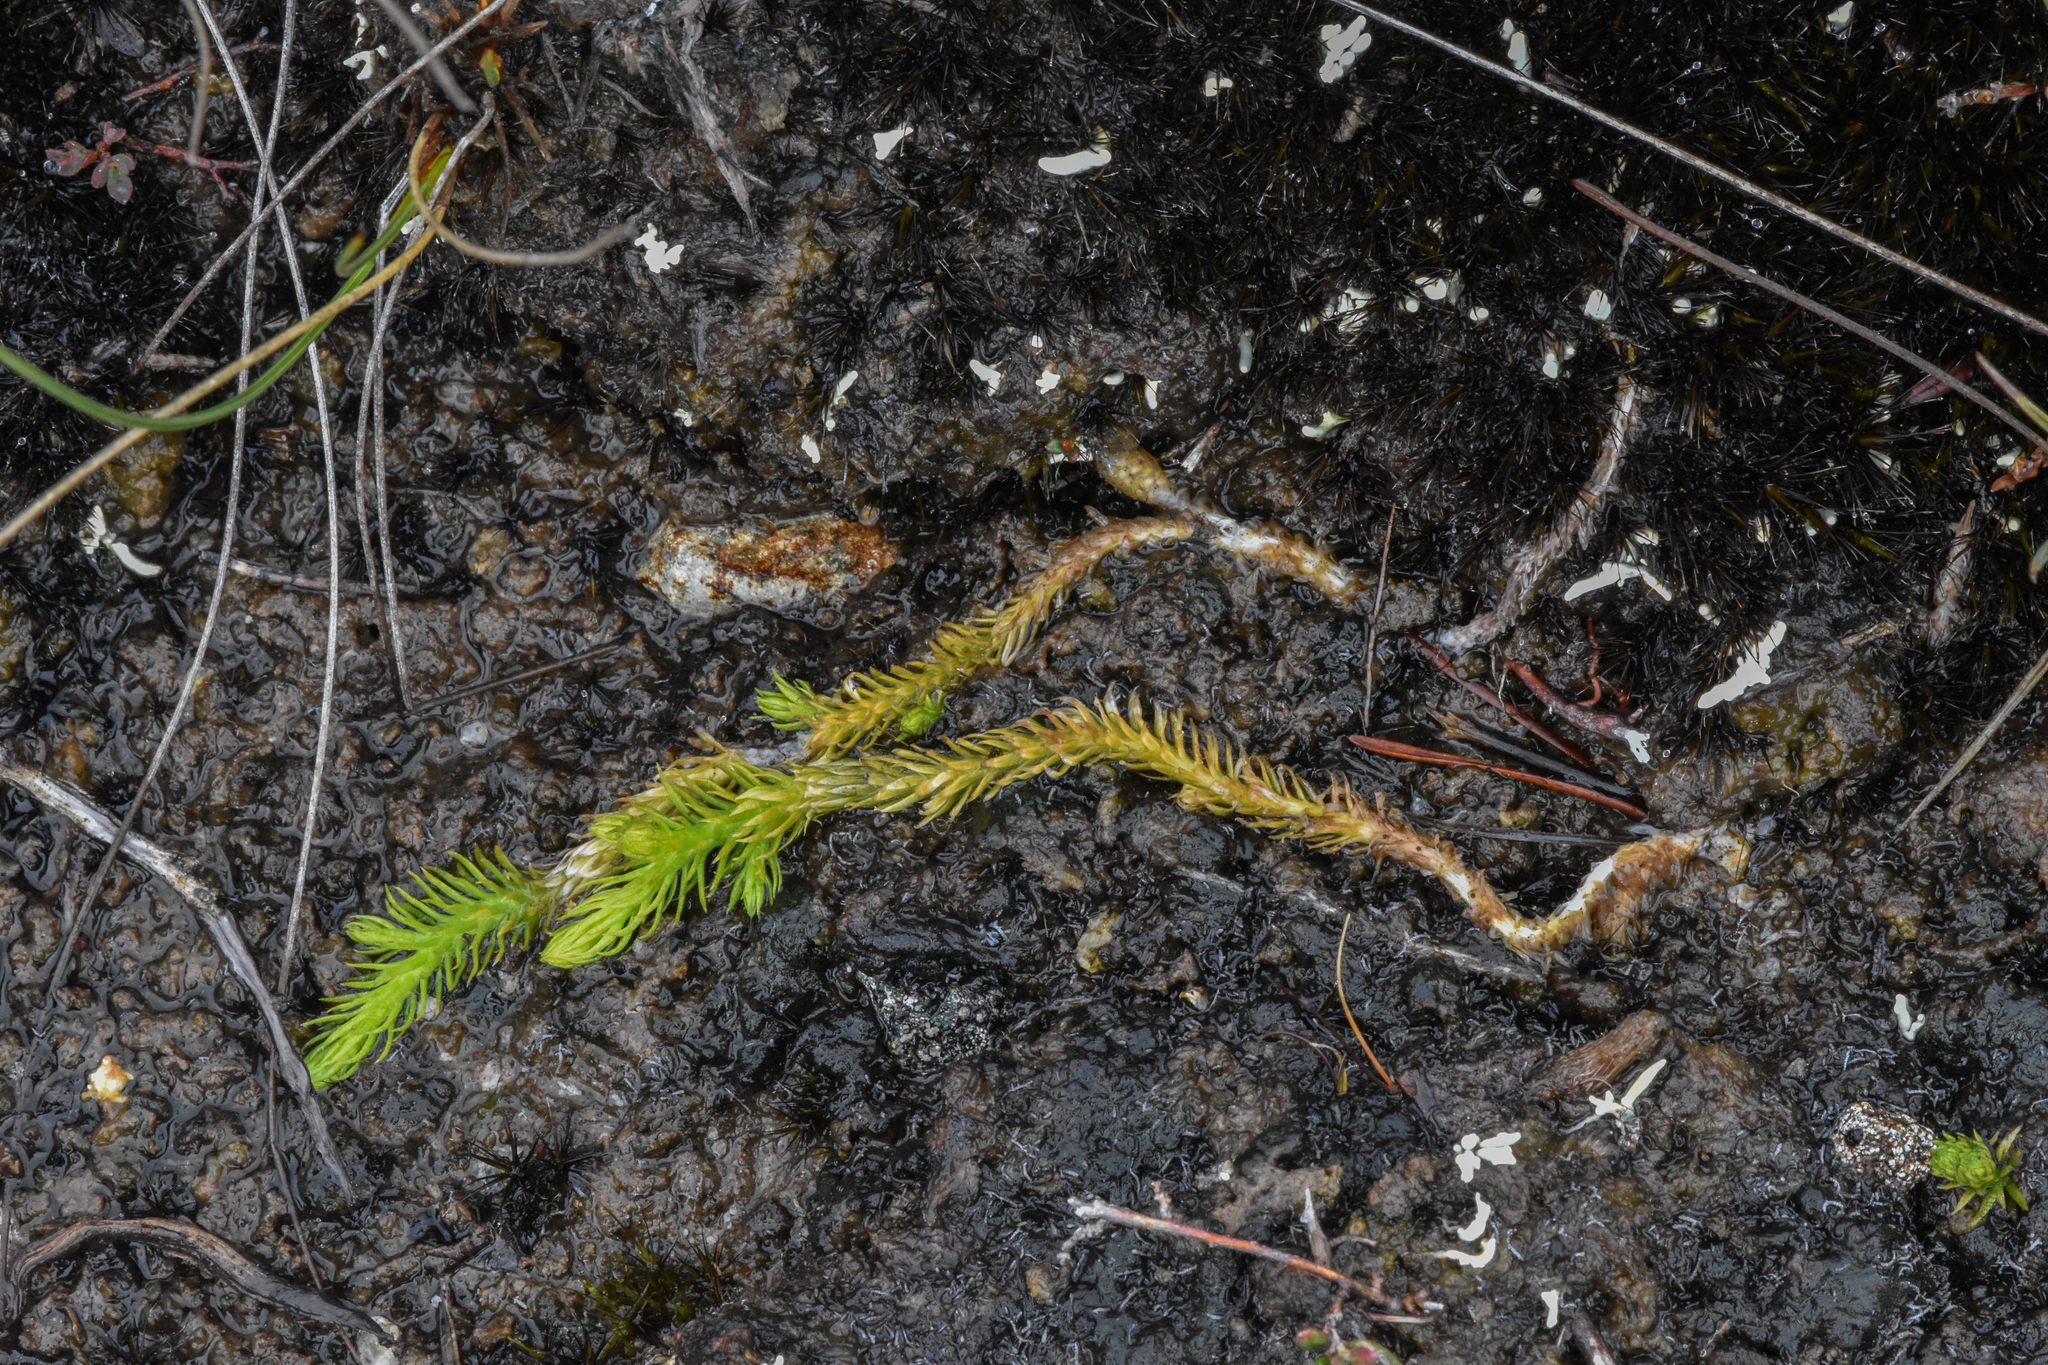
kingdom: Plantae
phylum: Tracheophyta
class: Lycopodiopsida
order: Lycopodiales
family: Lycopodiaceae
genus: Lycopodiella
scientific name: Lycopodiella inundata
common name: Marsh clubmoss
